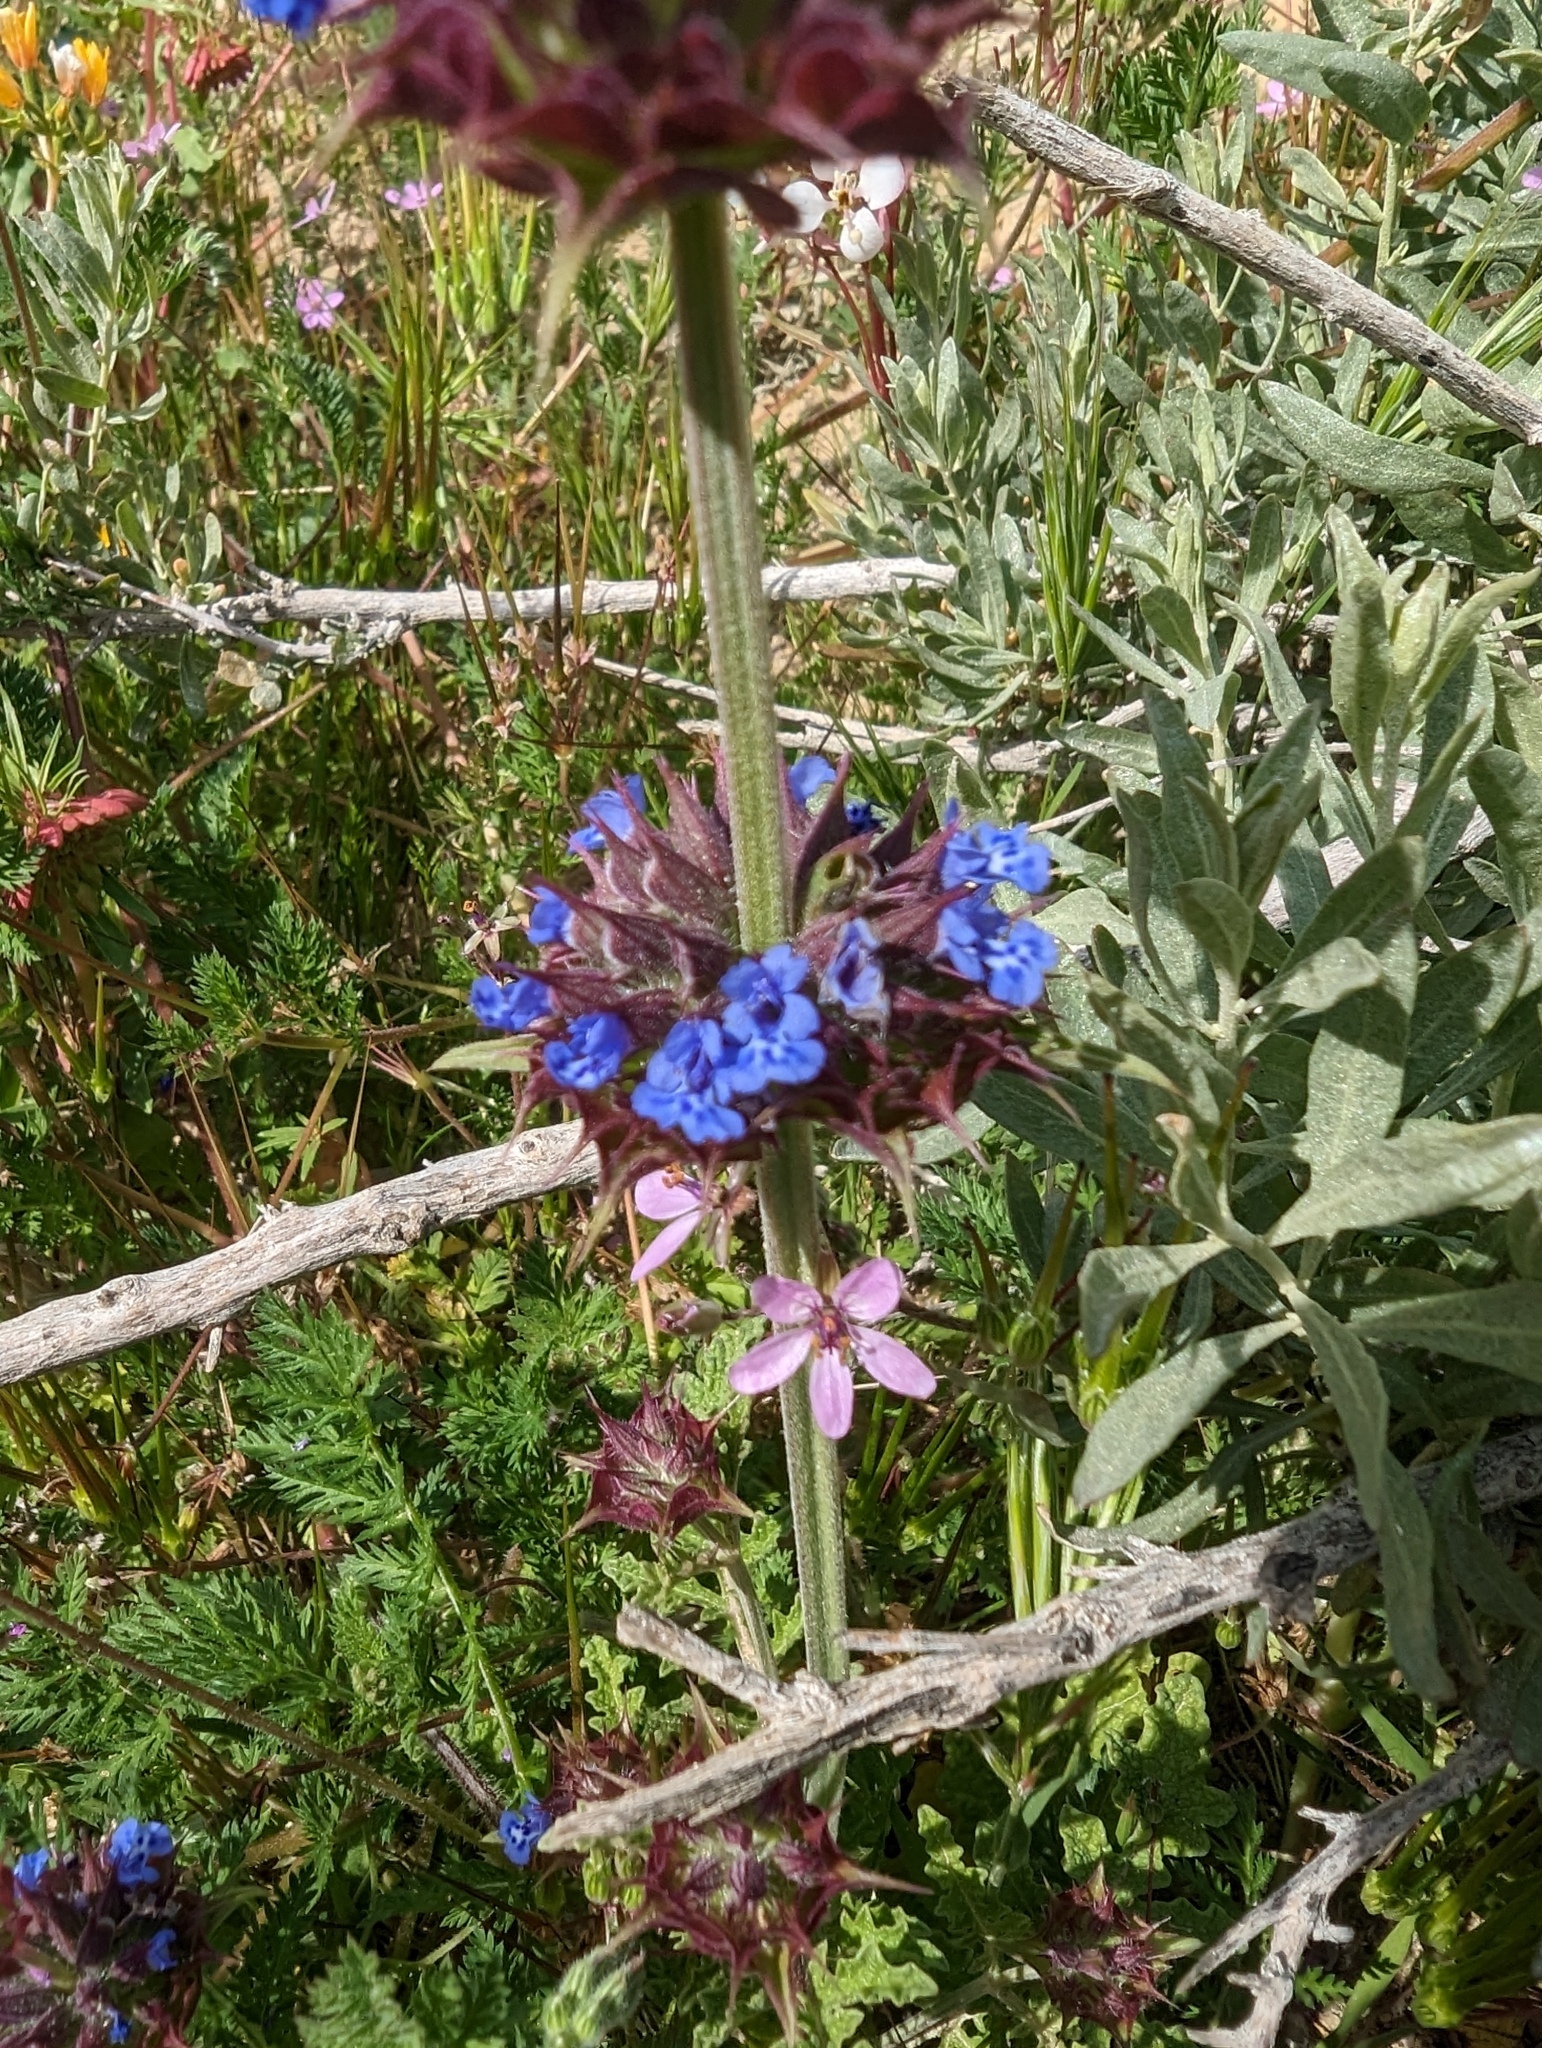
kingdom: Plantae
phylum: Tracheophyta
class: Magnoliopsida
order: Lamiales
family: Lamiaceae
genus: Salvia
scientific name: Salvia columbariae
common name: Chia
